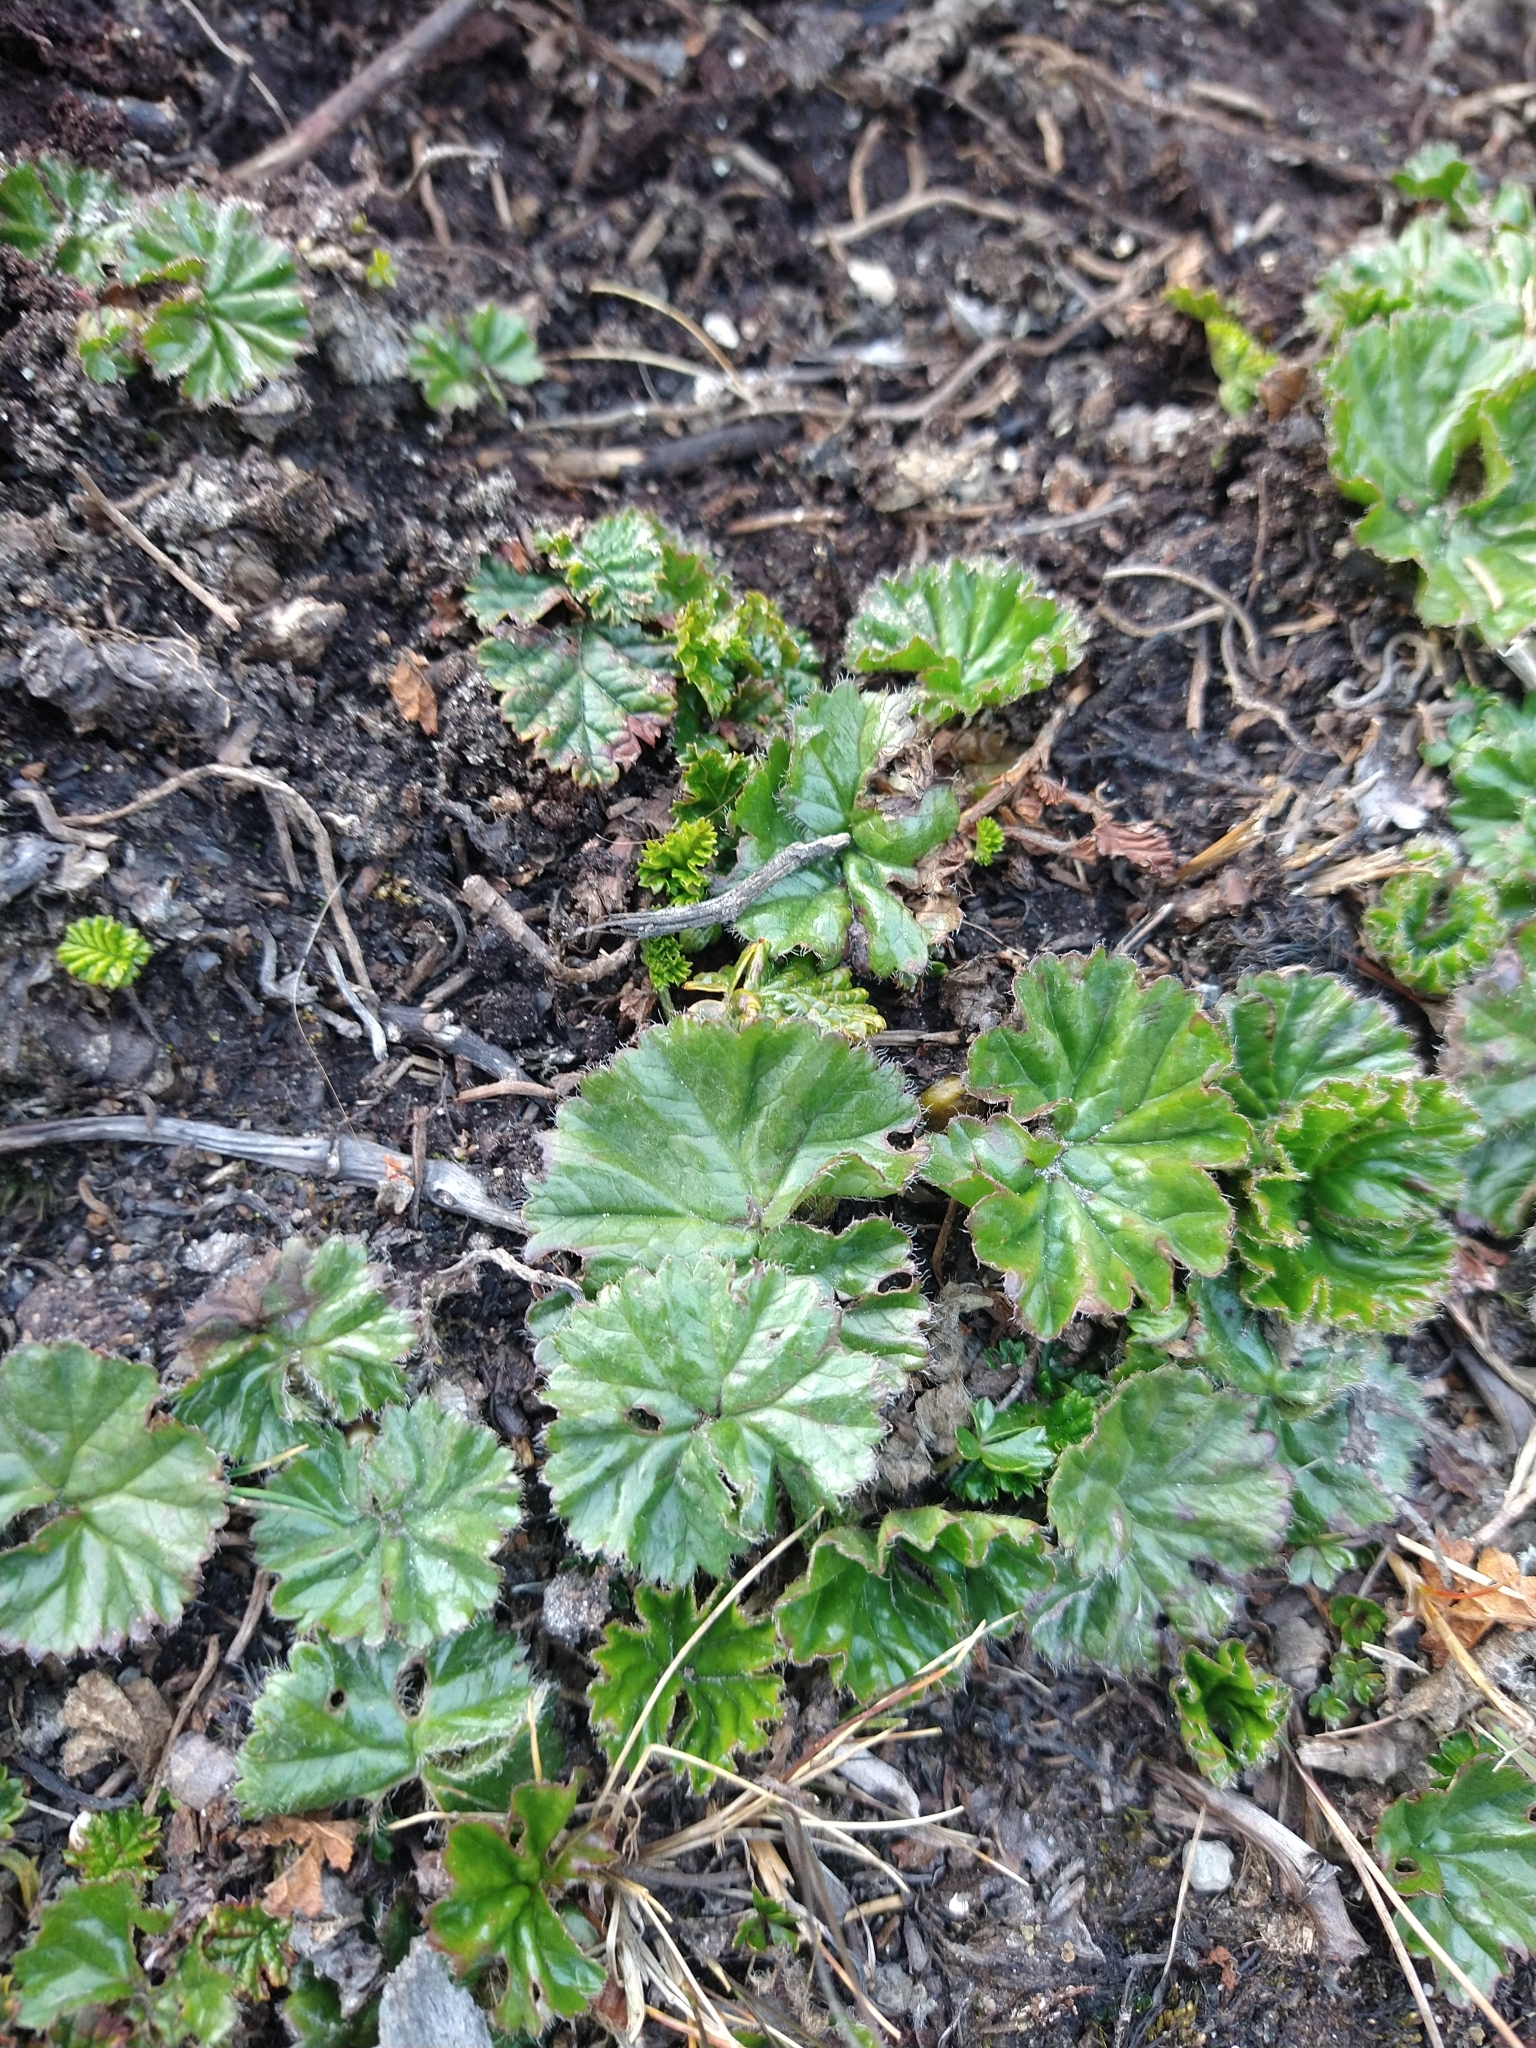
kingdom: Plantae
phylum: Tracheophyta
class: Magnoliopsida
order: Gunnerales
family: Gunneraceae
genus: Gunnera
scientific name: Gunnera magellanica
